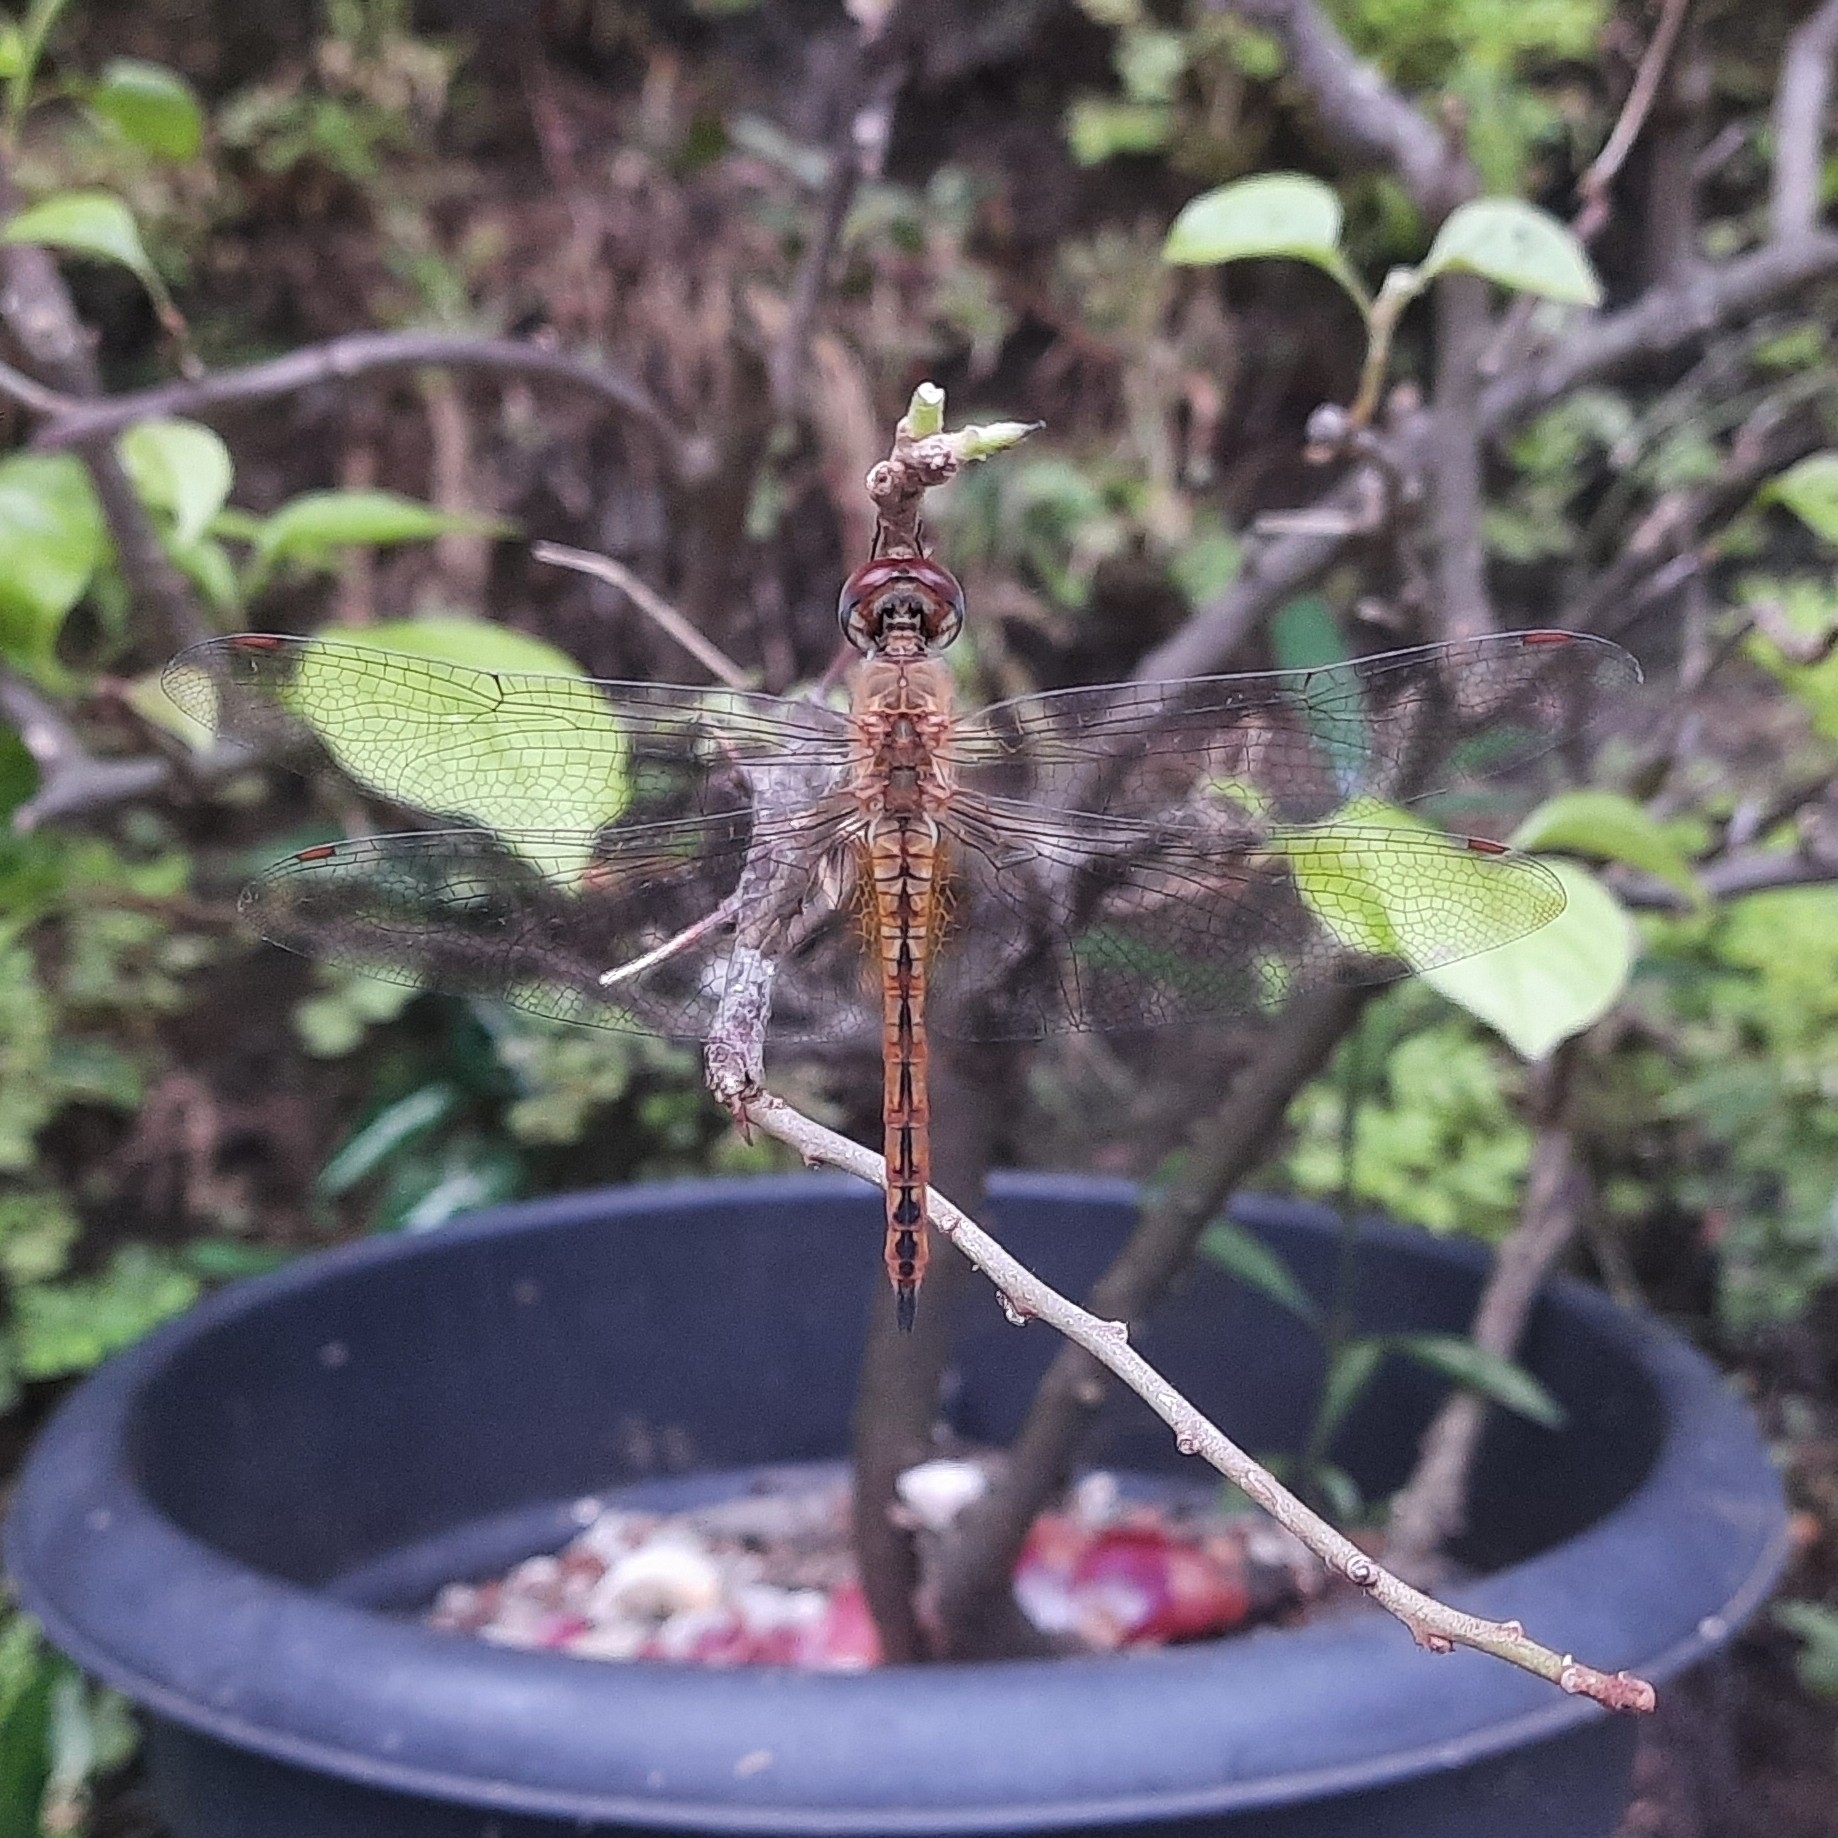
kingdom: Animalia
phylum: Arthropoda
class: Insecta
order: Odonata
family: Libellulidae
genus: Pantala
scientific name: Pantala flavescens
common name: Wandering glider
